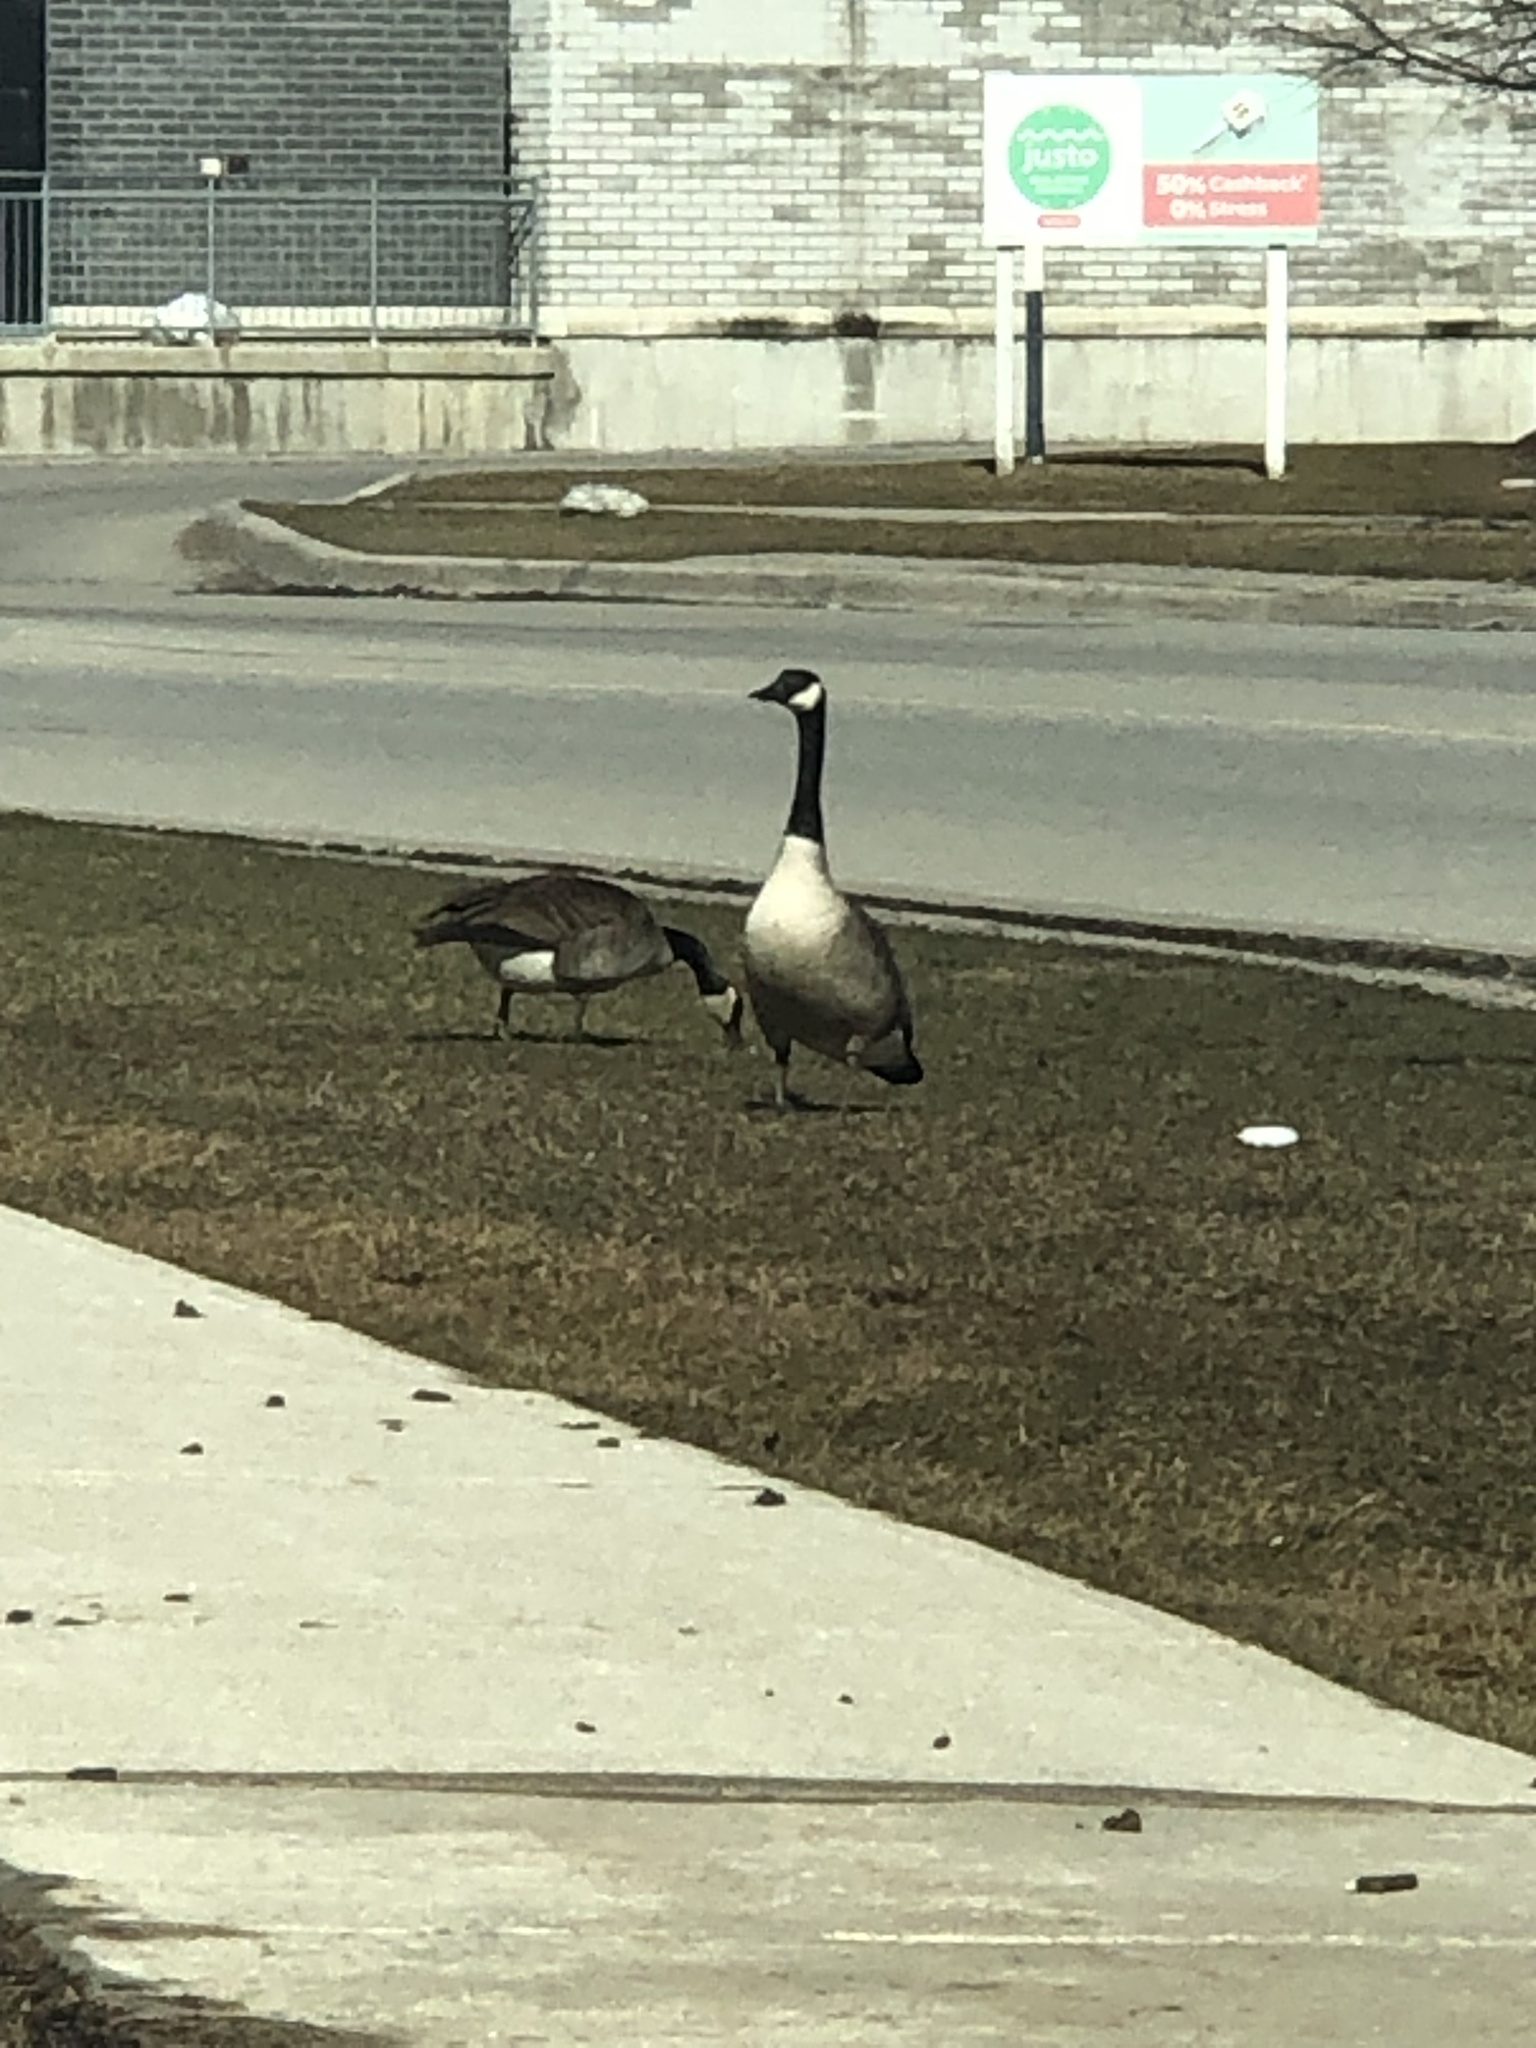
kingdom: Animalia
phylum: Chordata
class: Aves
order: Anseriformes
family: Anatidae
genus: Branta
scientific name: Branta canadensis
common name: Canada goose
